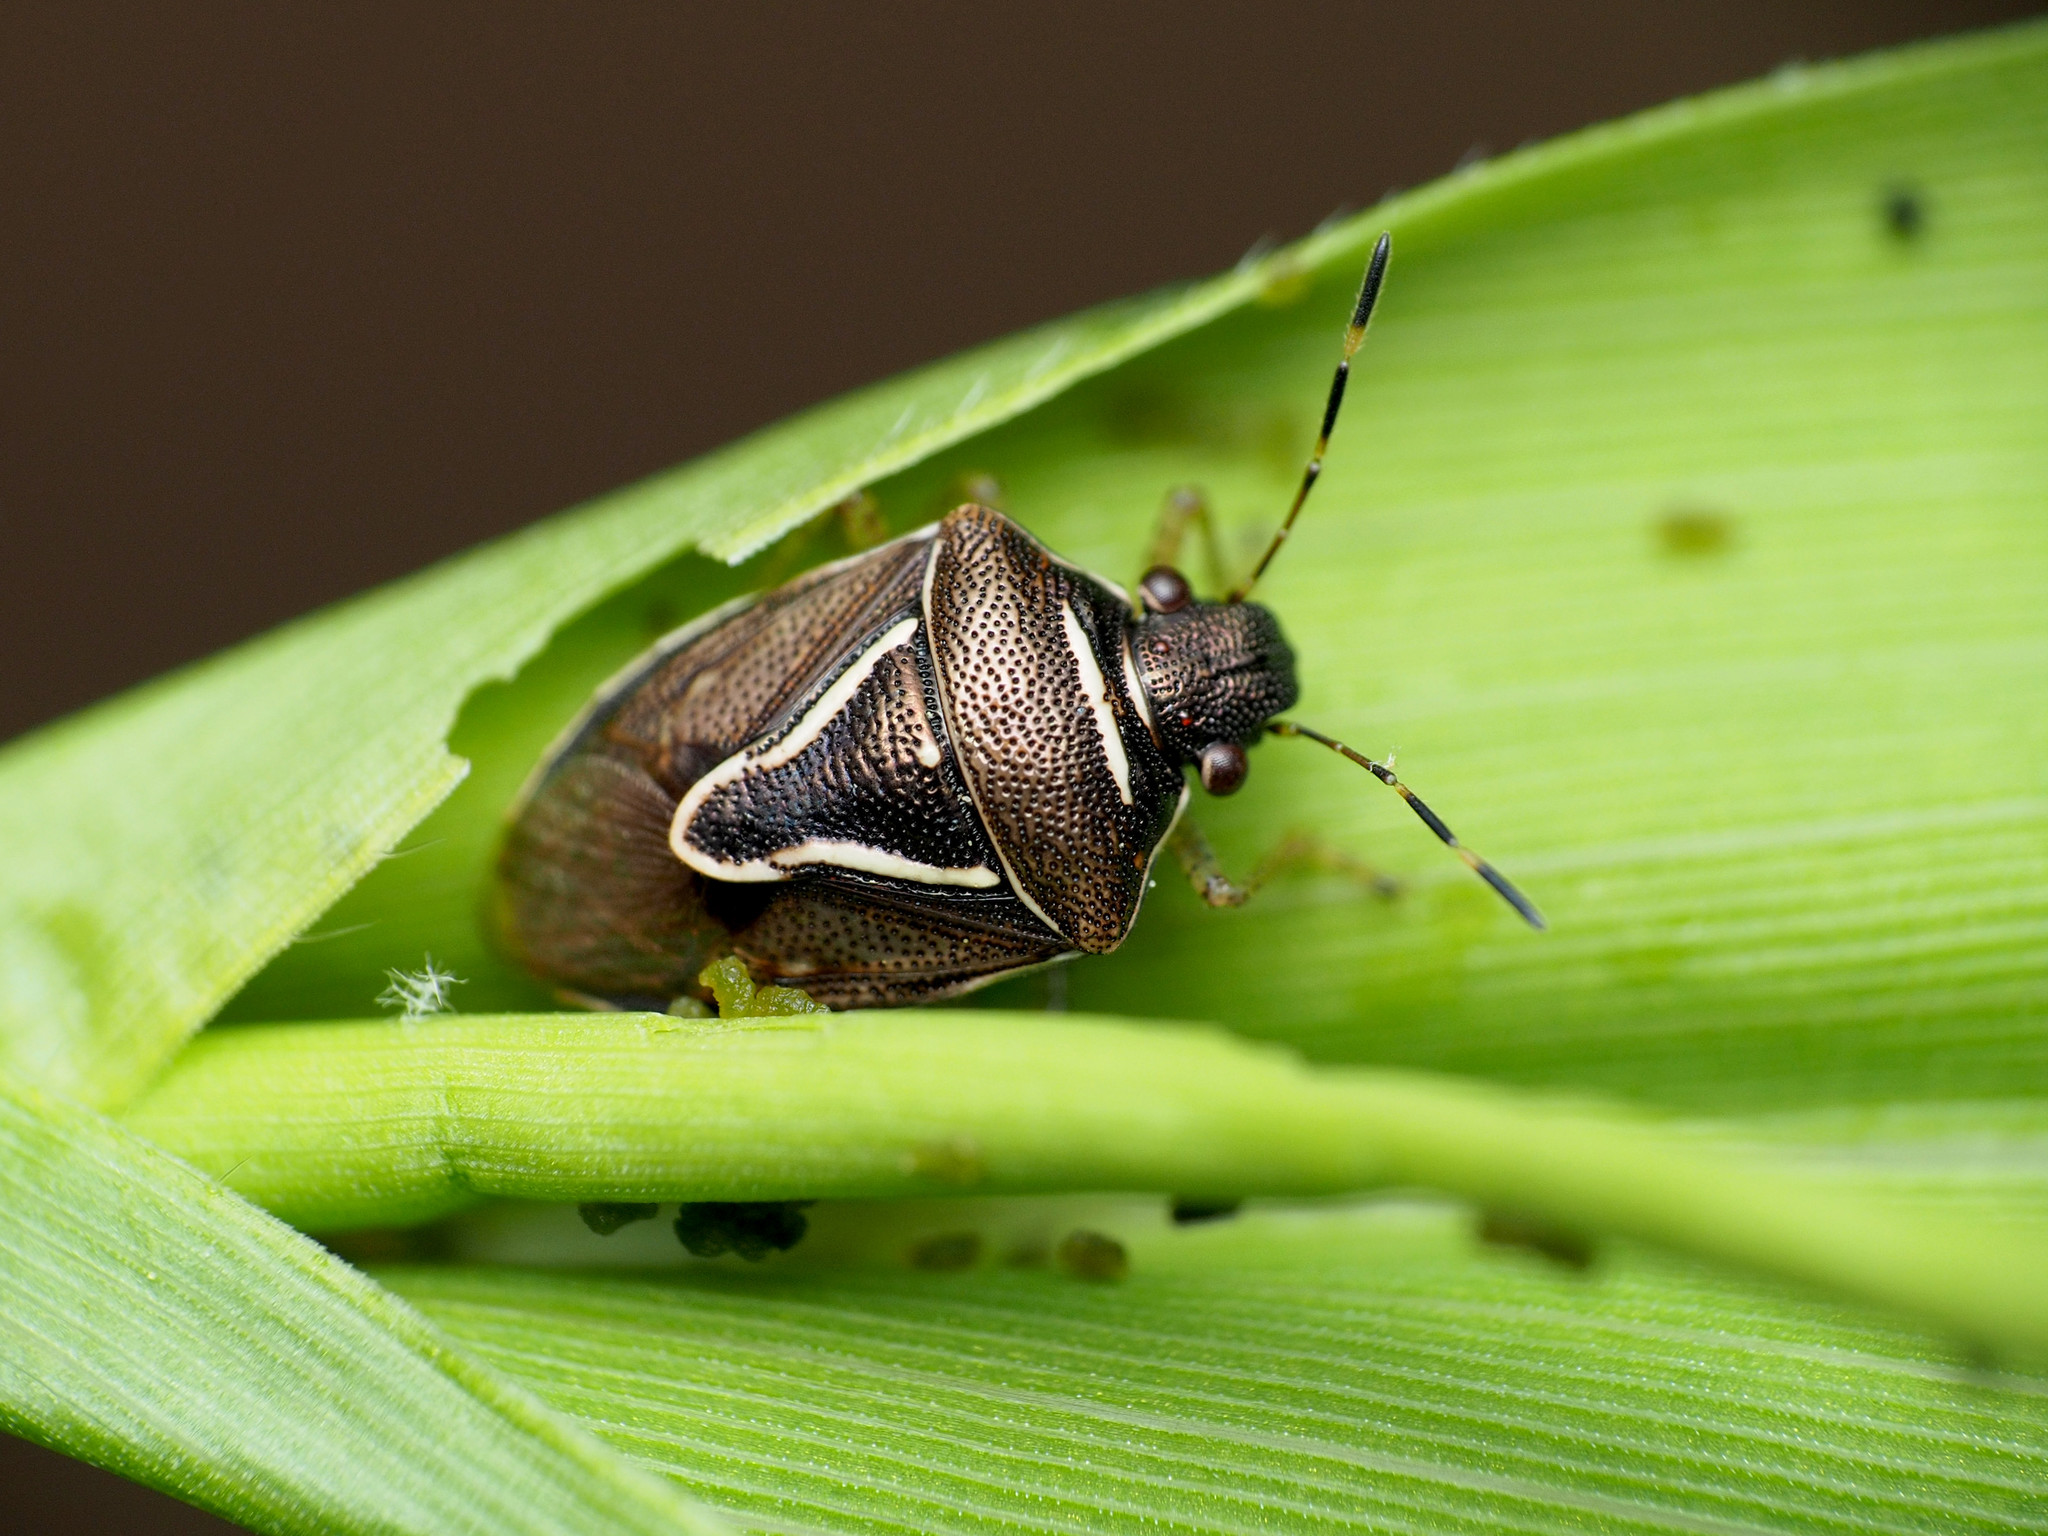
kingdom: Animalia
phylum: Arthropoda
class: Insecta
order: Hemiptera
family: Pentatomidae
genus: Mormidea
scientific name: Mormidea lugens
